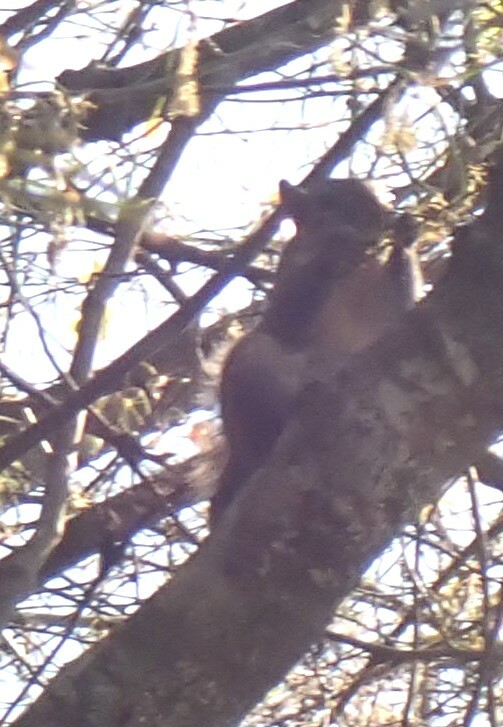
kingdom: Animalia
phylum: Chordata
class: Mammalia
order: Rodentia
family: Sciuridae
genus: Sciurus
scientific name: Sciurus carolinensis
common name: Eastern gray squirrel
